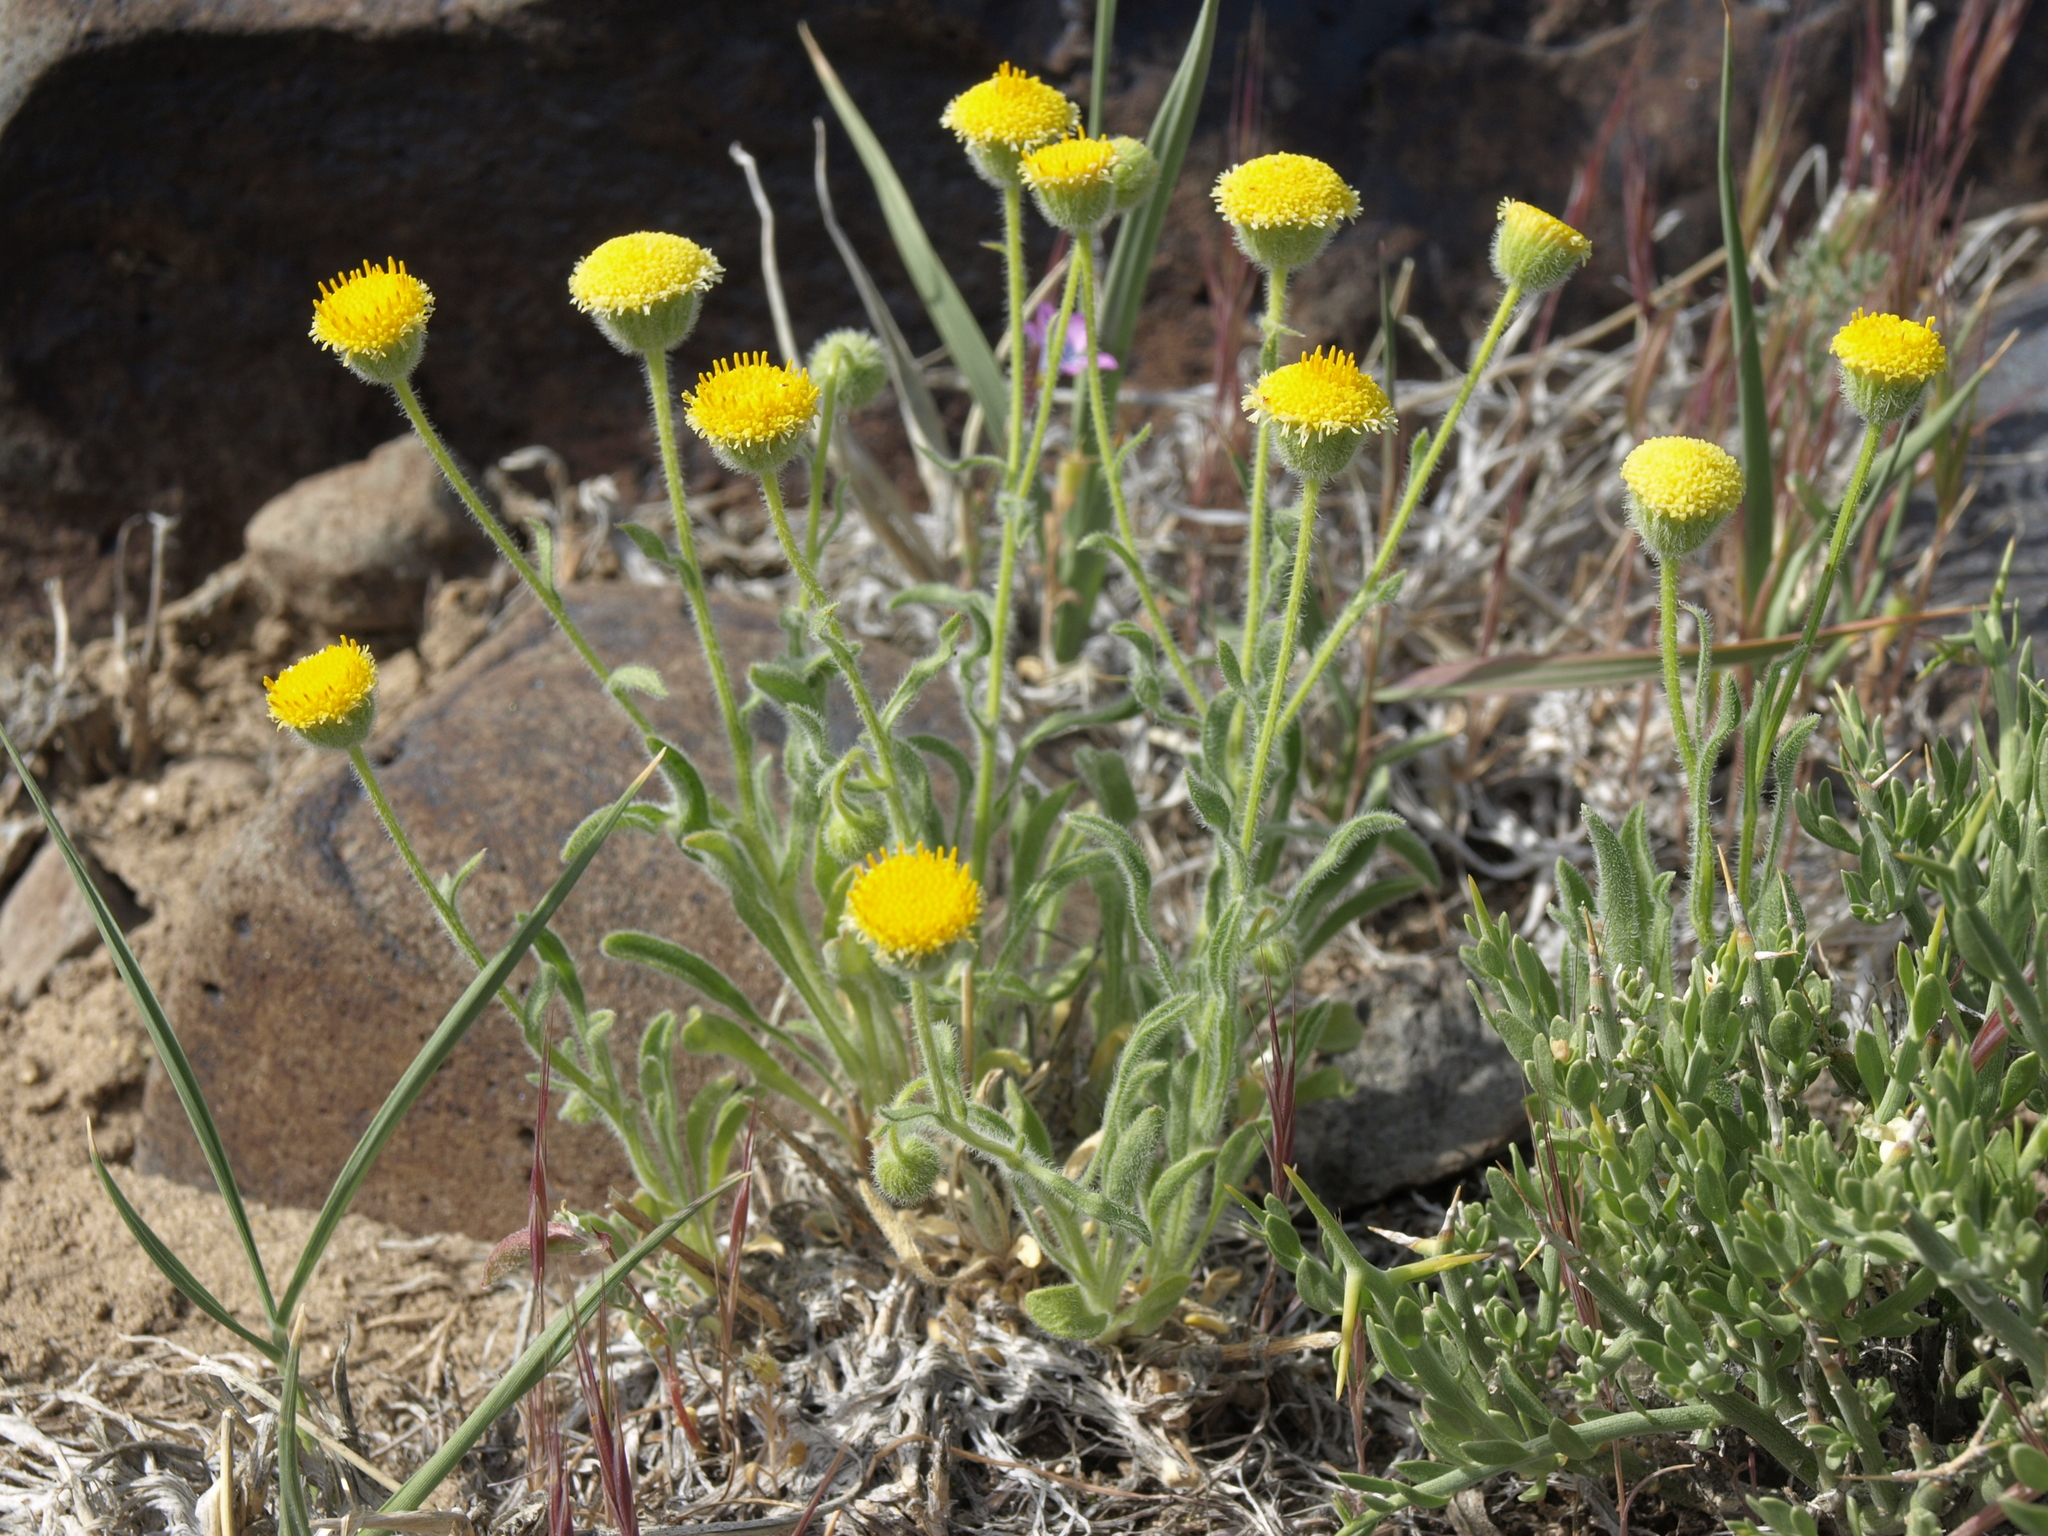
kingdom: Plantae
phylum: Tracheophyta
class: Magnoliopsida
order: Asterales
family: Asteraceae
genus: Erigeron
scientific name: Erigeron aphanactis
